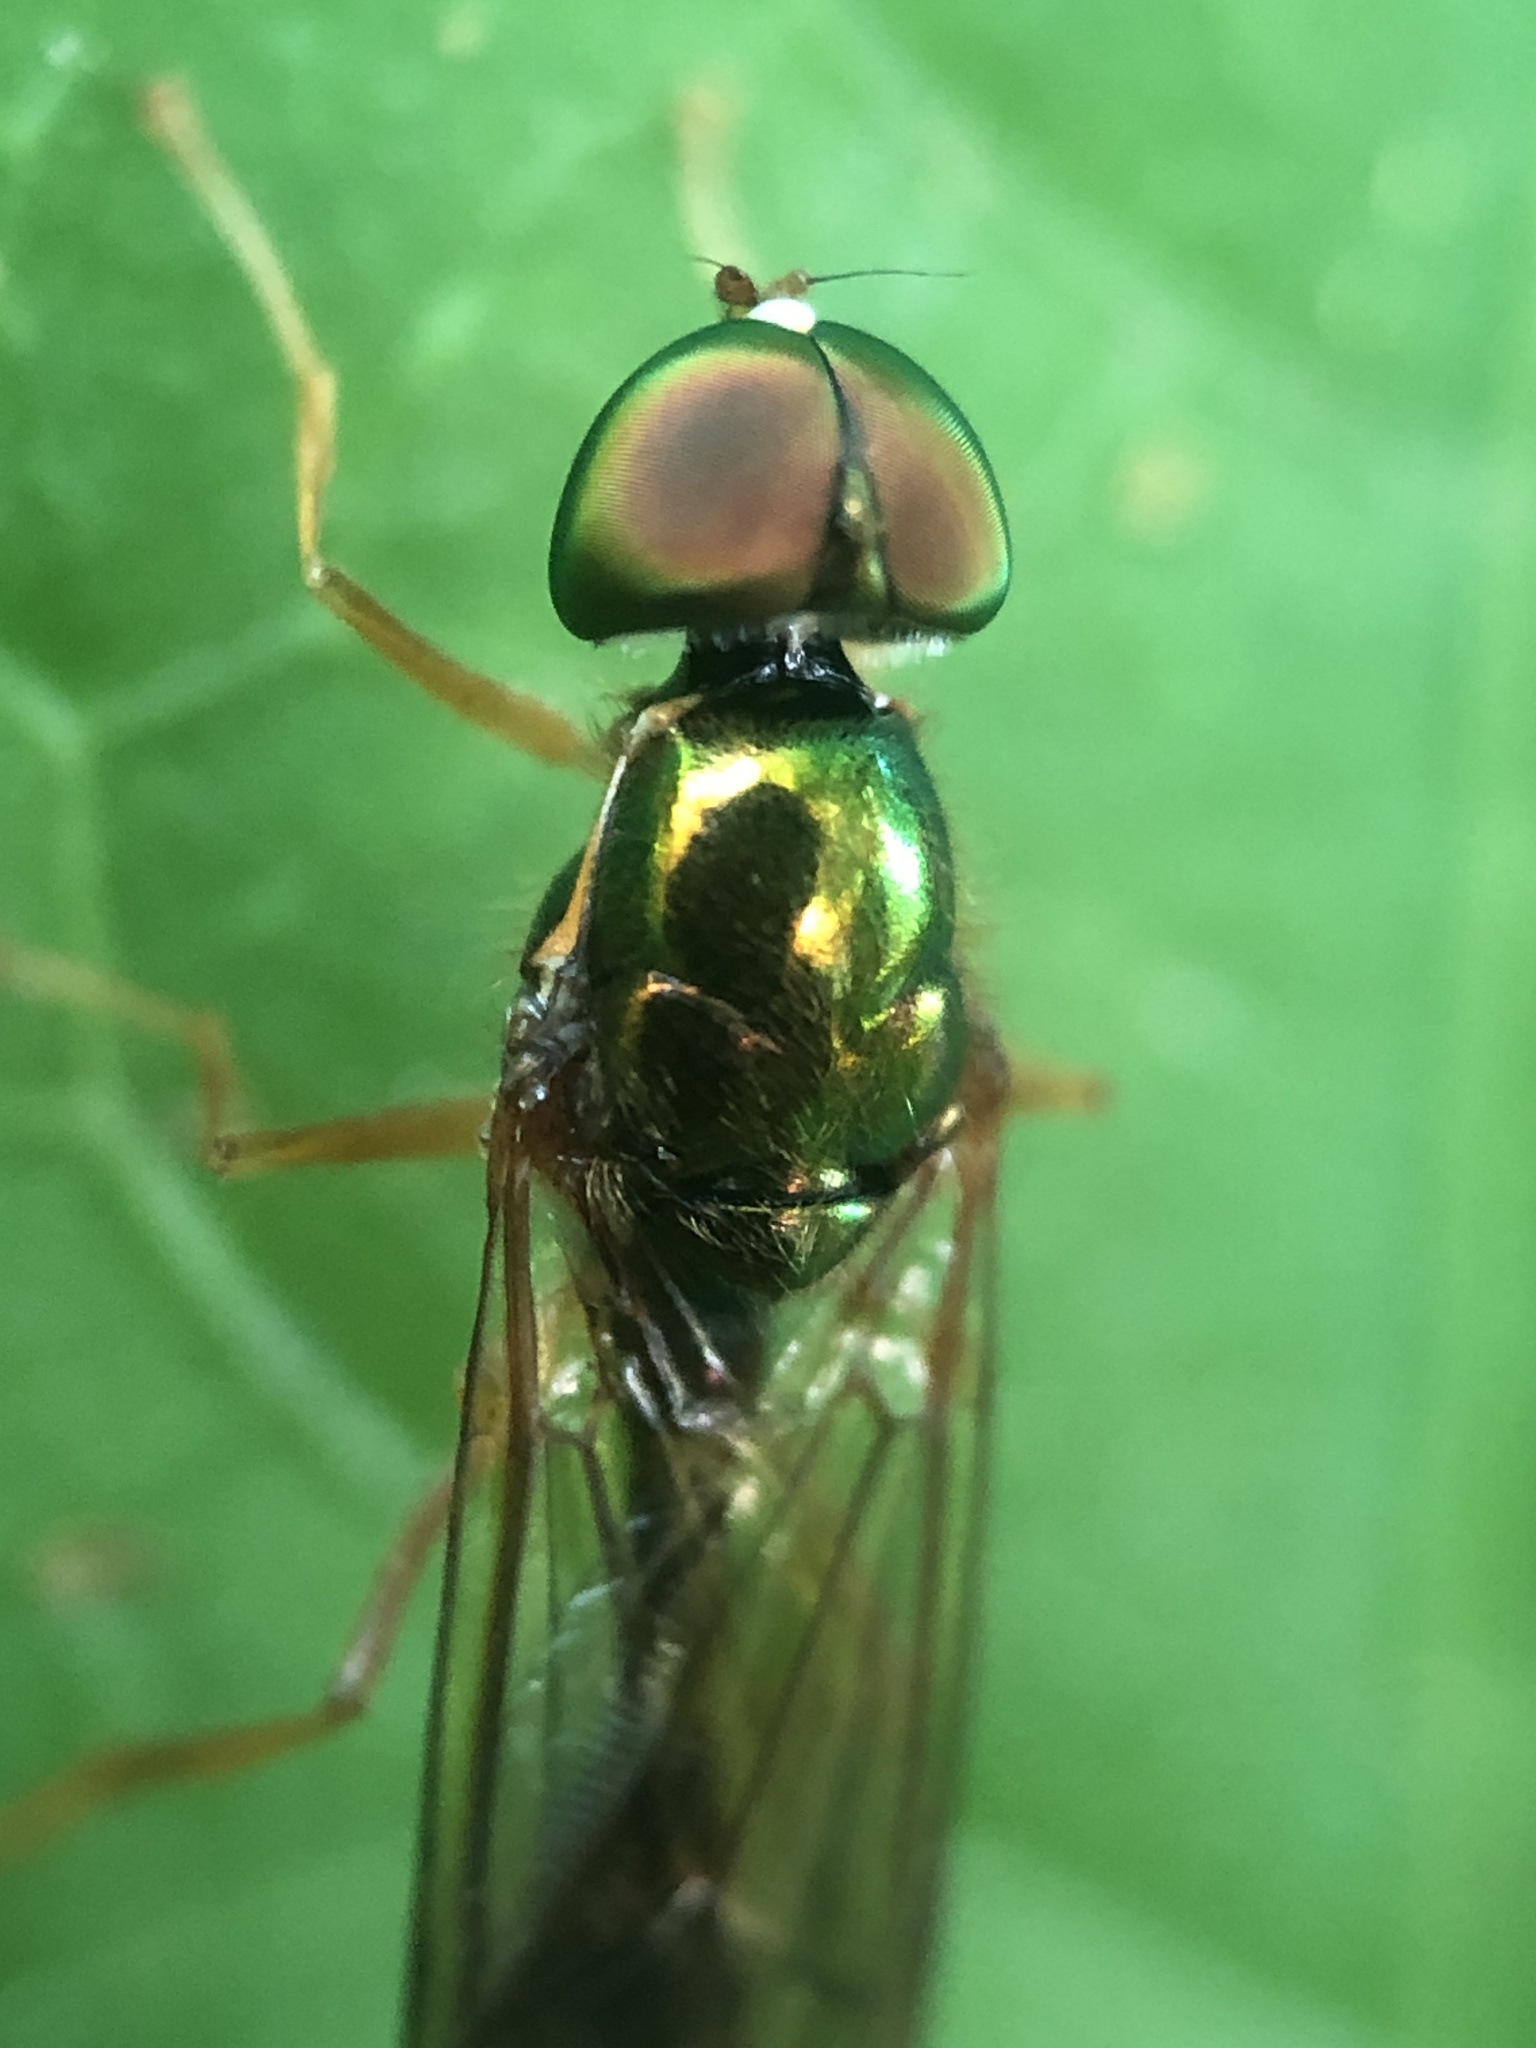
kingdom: Animalia
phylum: Arthropoda
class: Insecta
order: Diptera
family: Stratiomyidae
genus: Sargus
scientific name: Sargus fasciatus
